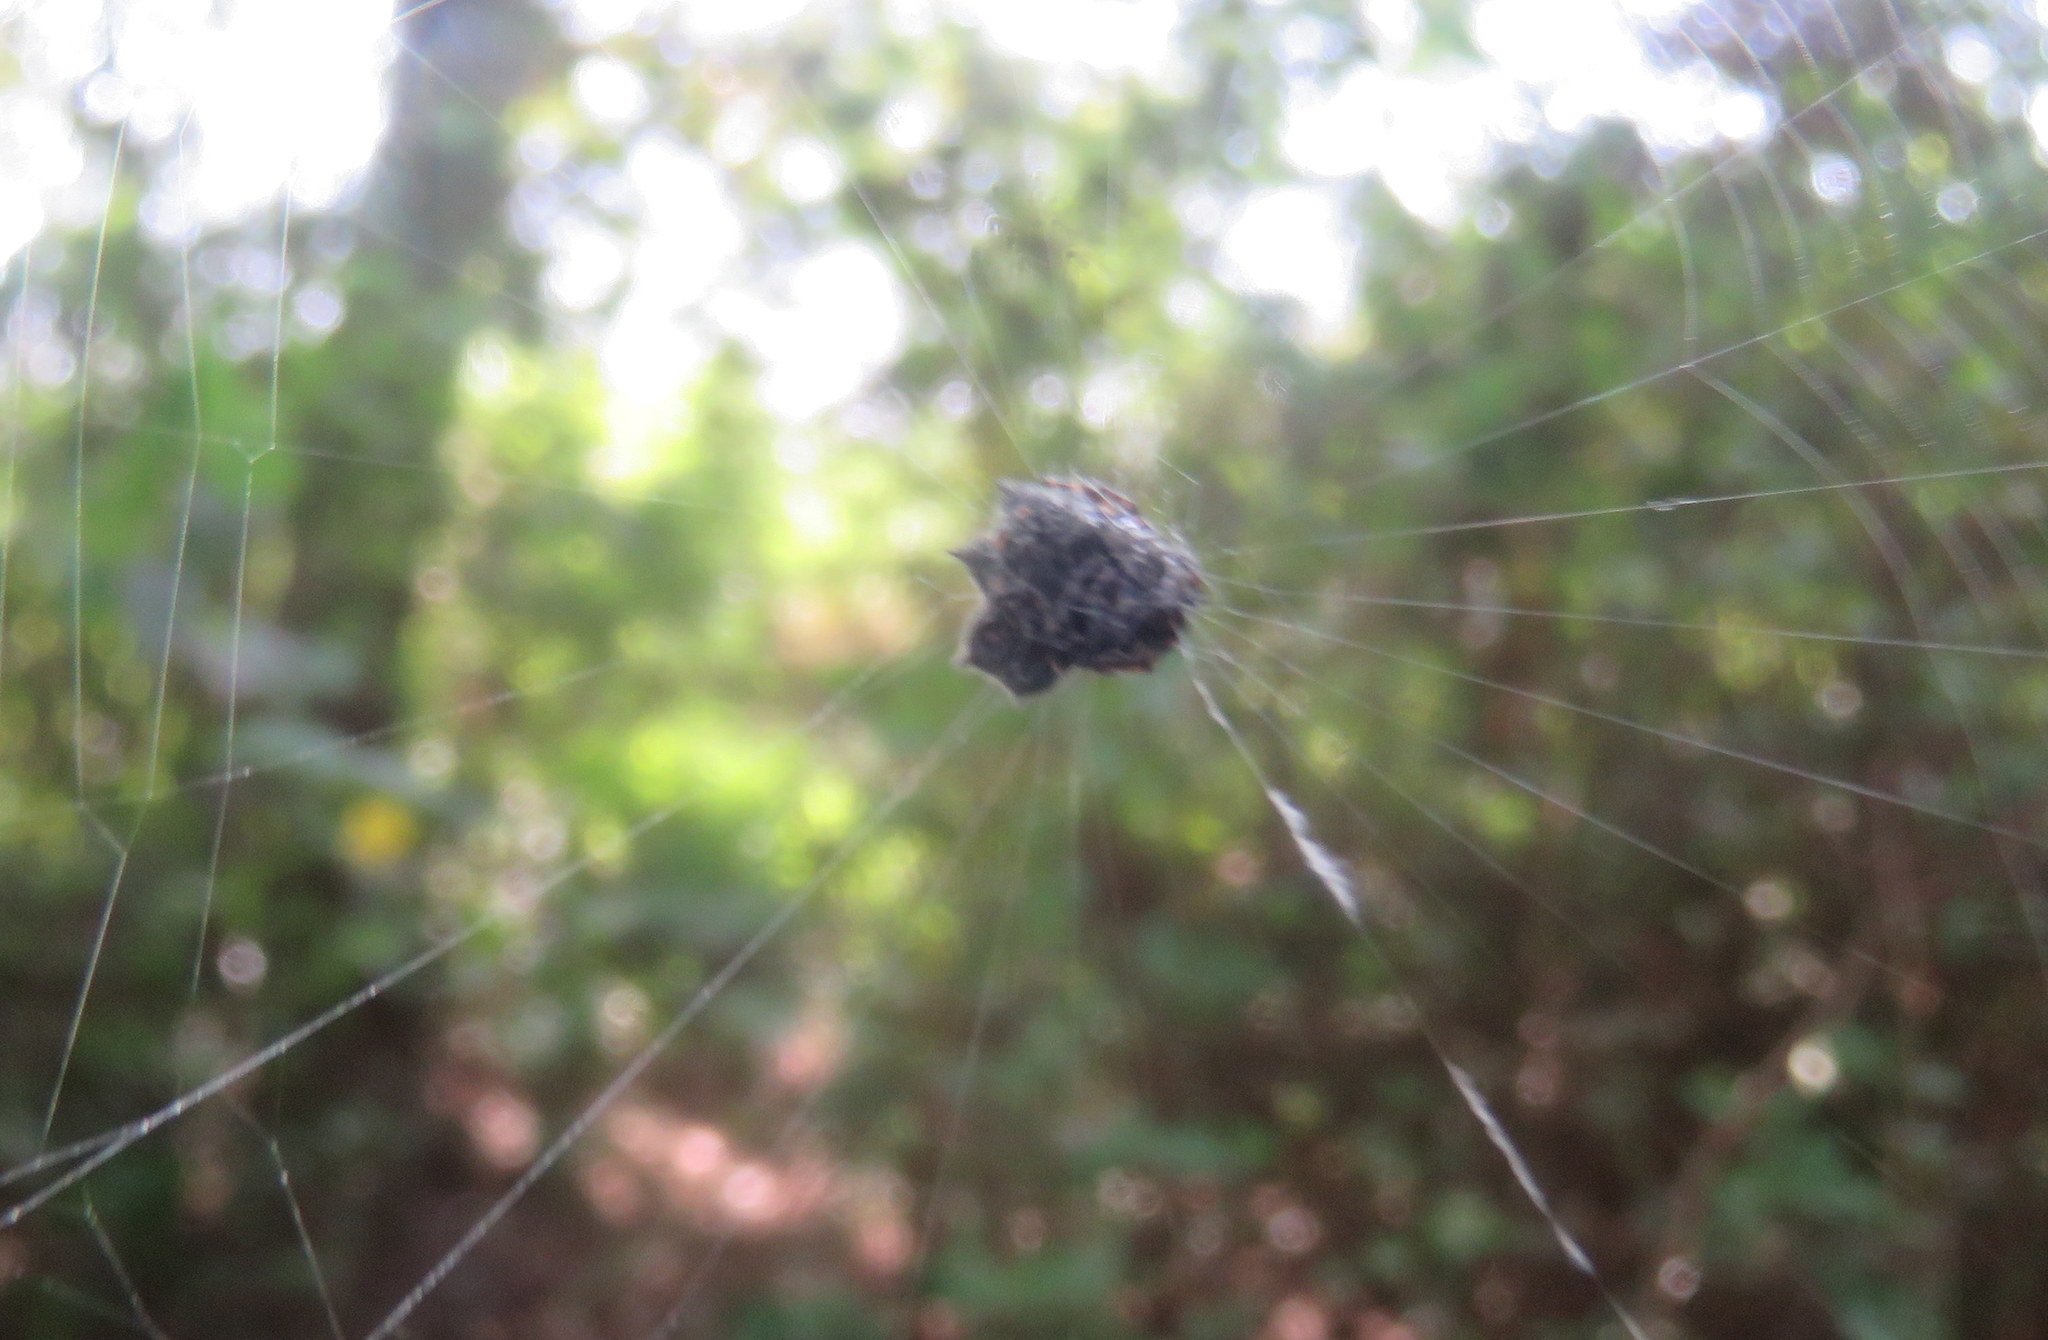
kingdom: Animalia
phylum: Arthropoda
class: Arachnida
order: Araneae
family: Araneidae
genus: Gasteracantha
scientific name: Gasteracantha cancriformis
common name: Orb weavers
